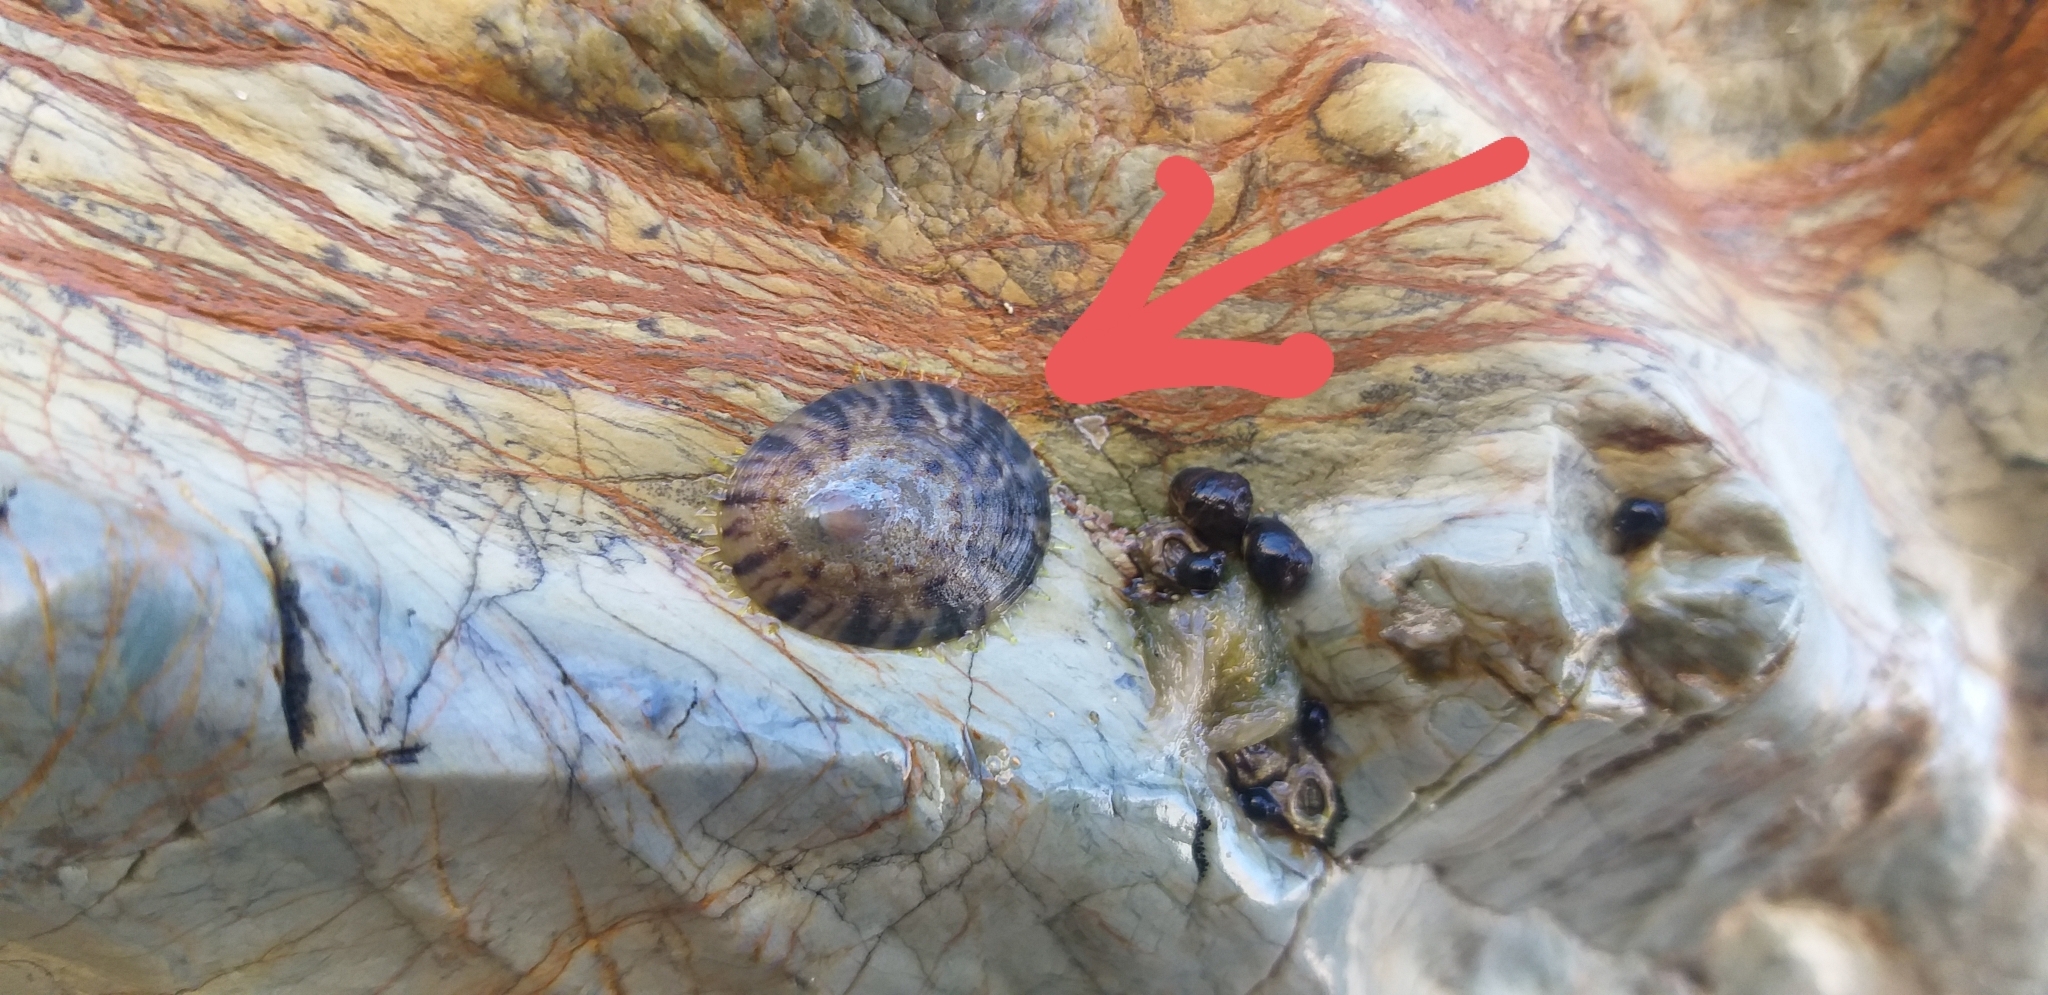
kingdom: Animalia
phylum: Mollusca
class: Gastropoda
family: Nacellidae
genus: Cellana
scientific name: Cellana radians
